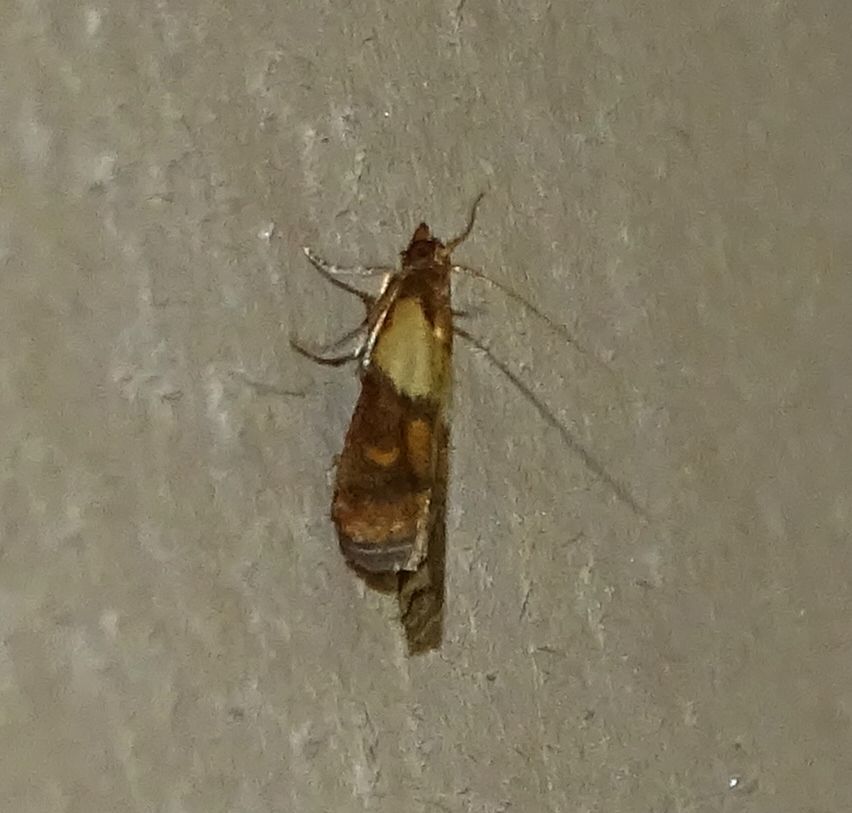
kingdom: Animalia
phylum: Arthropoda
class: Insecta
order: Lepidoptera
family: Pyralidae
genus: Plodia
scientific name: Plodia interpunctella
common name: Indian meal moth
